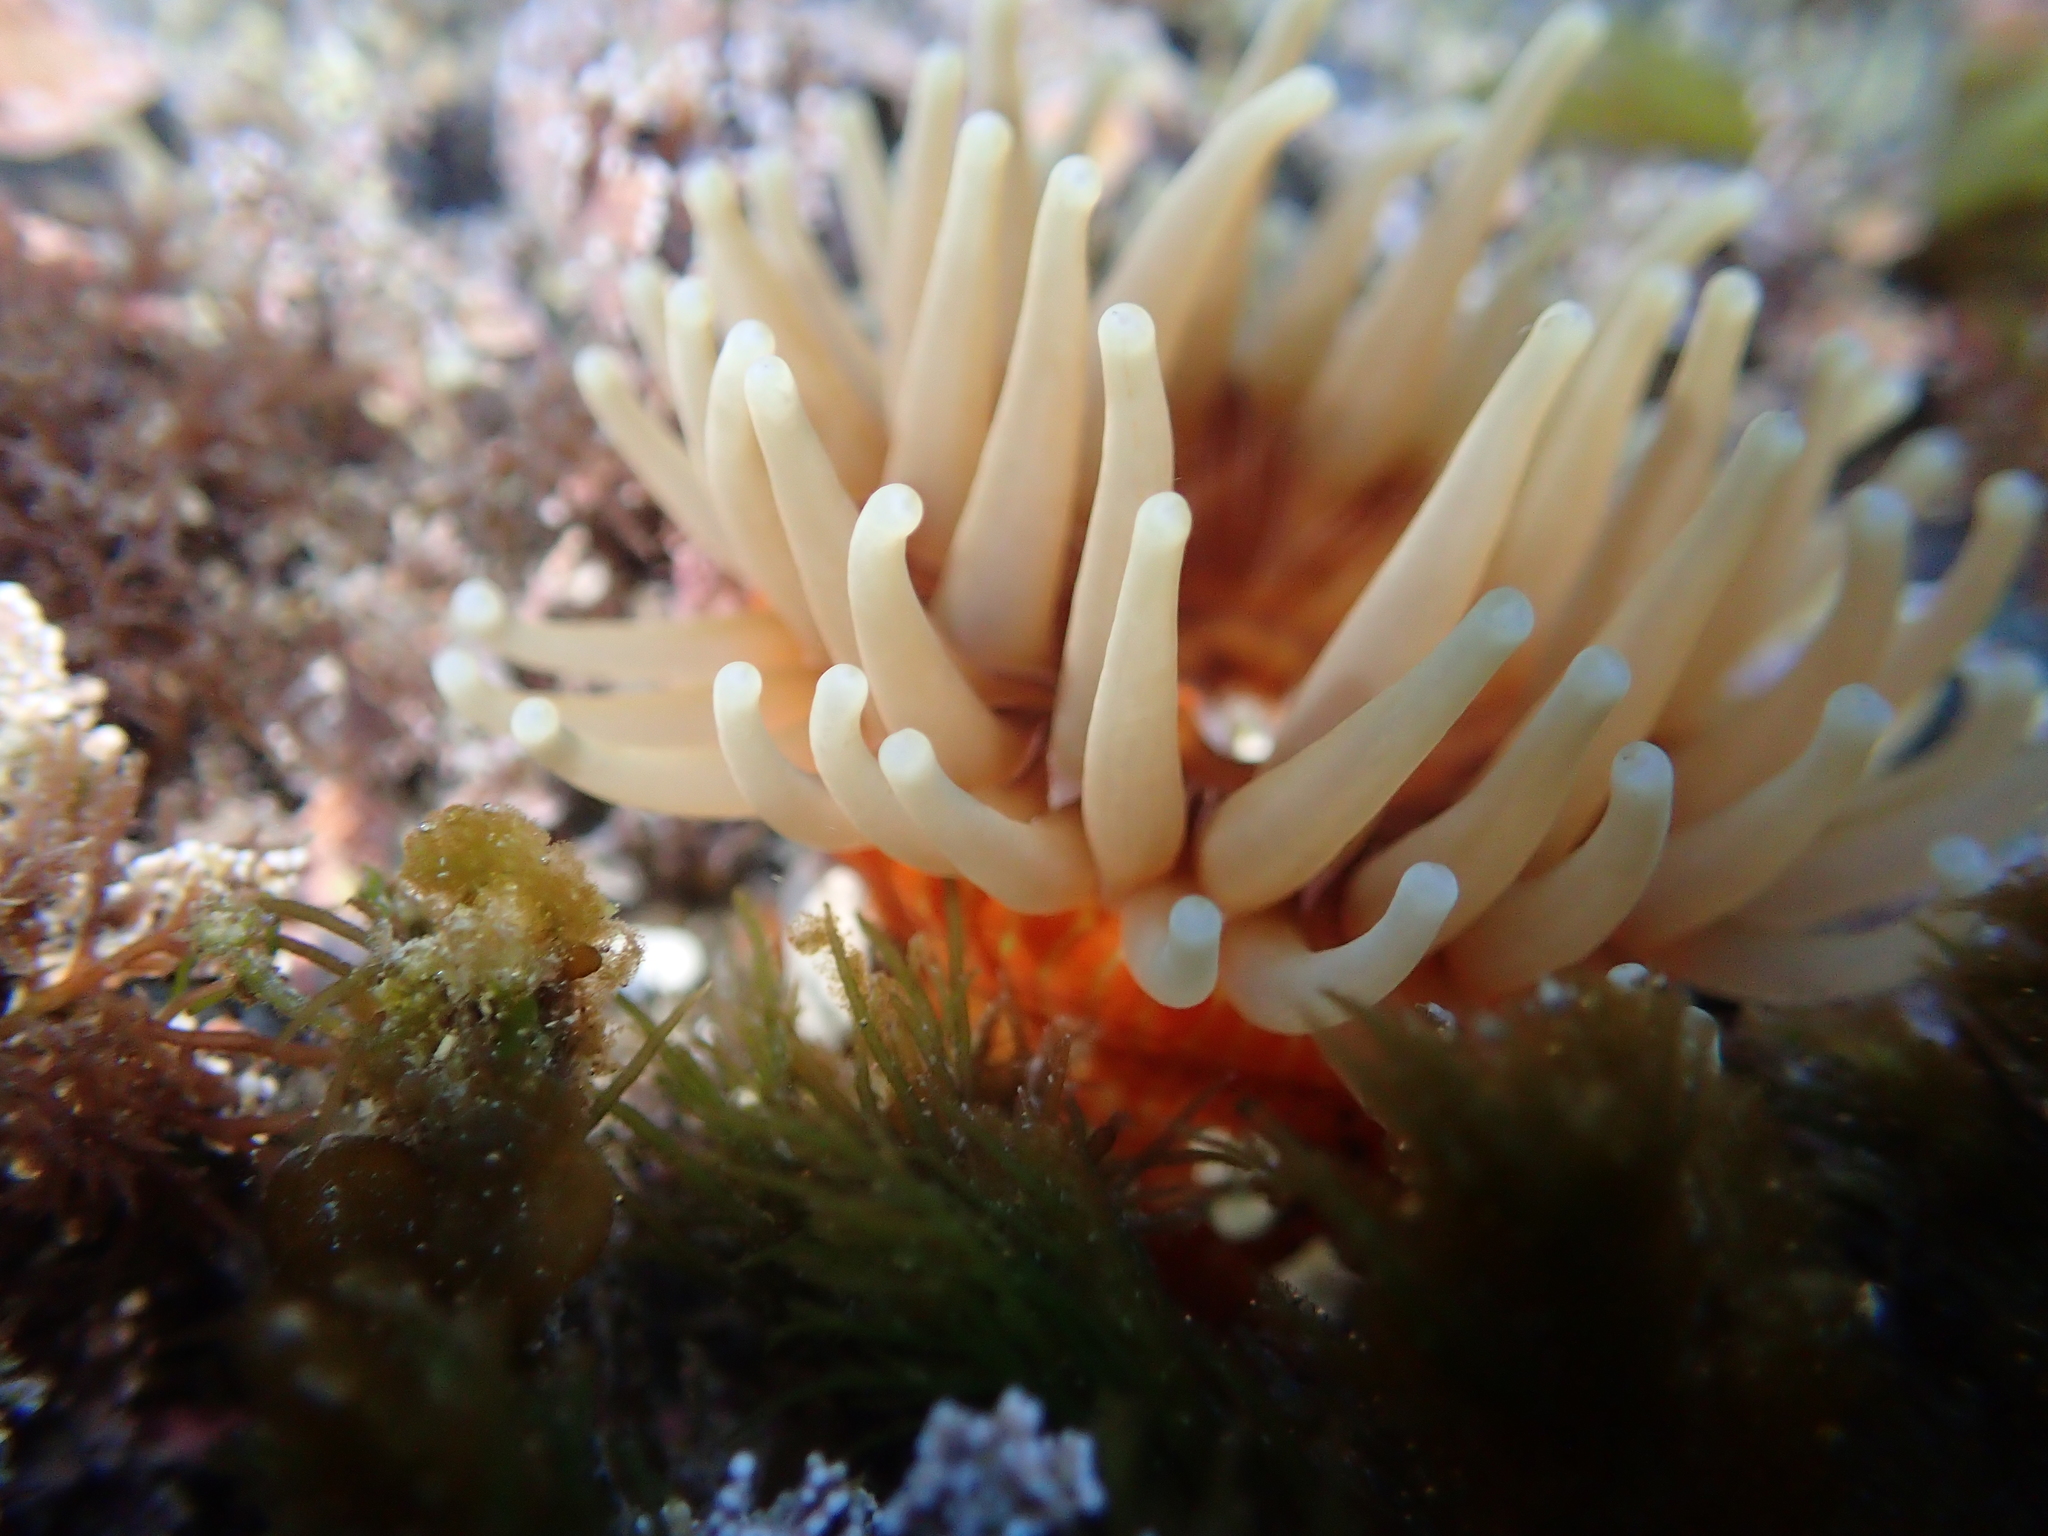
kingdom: Animalia
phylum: Cnidaria
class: Anthozoa
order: Actiniaria
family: Actiniidae
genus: Epiactis
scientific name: Epiactis thompsoni
